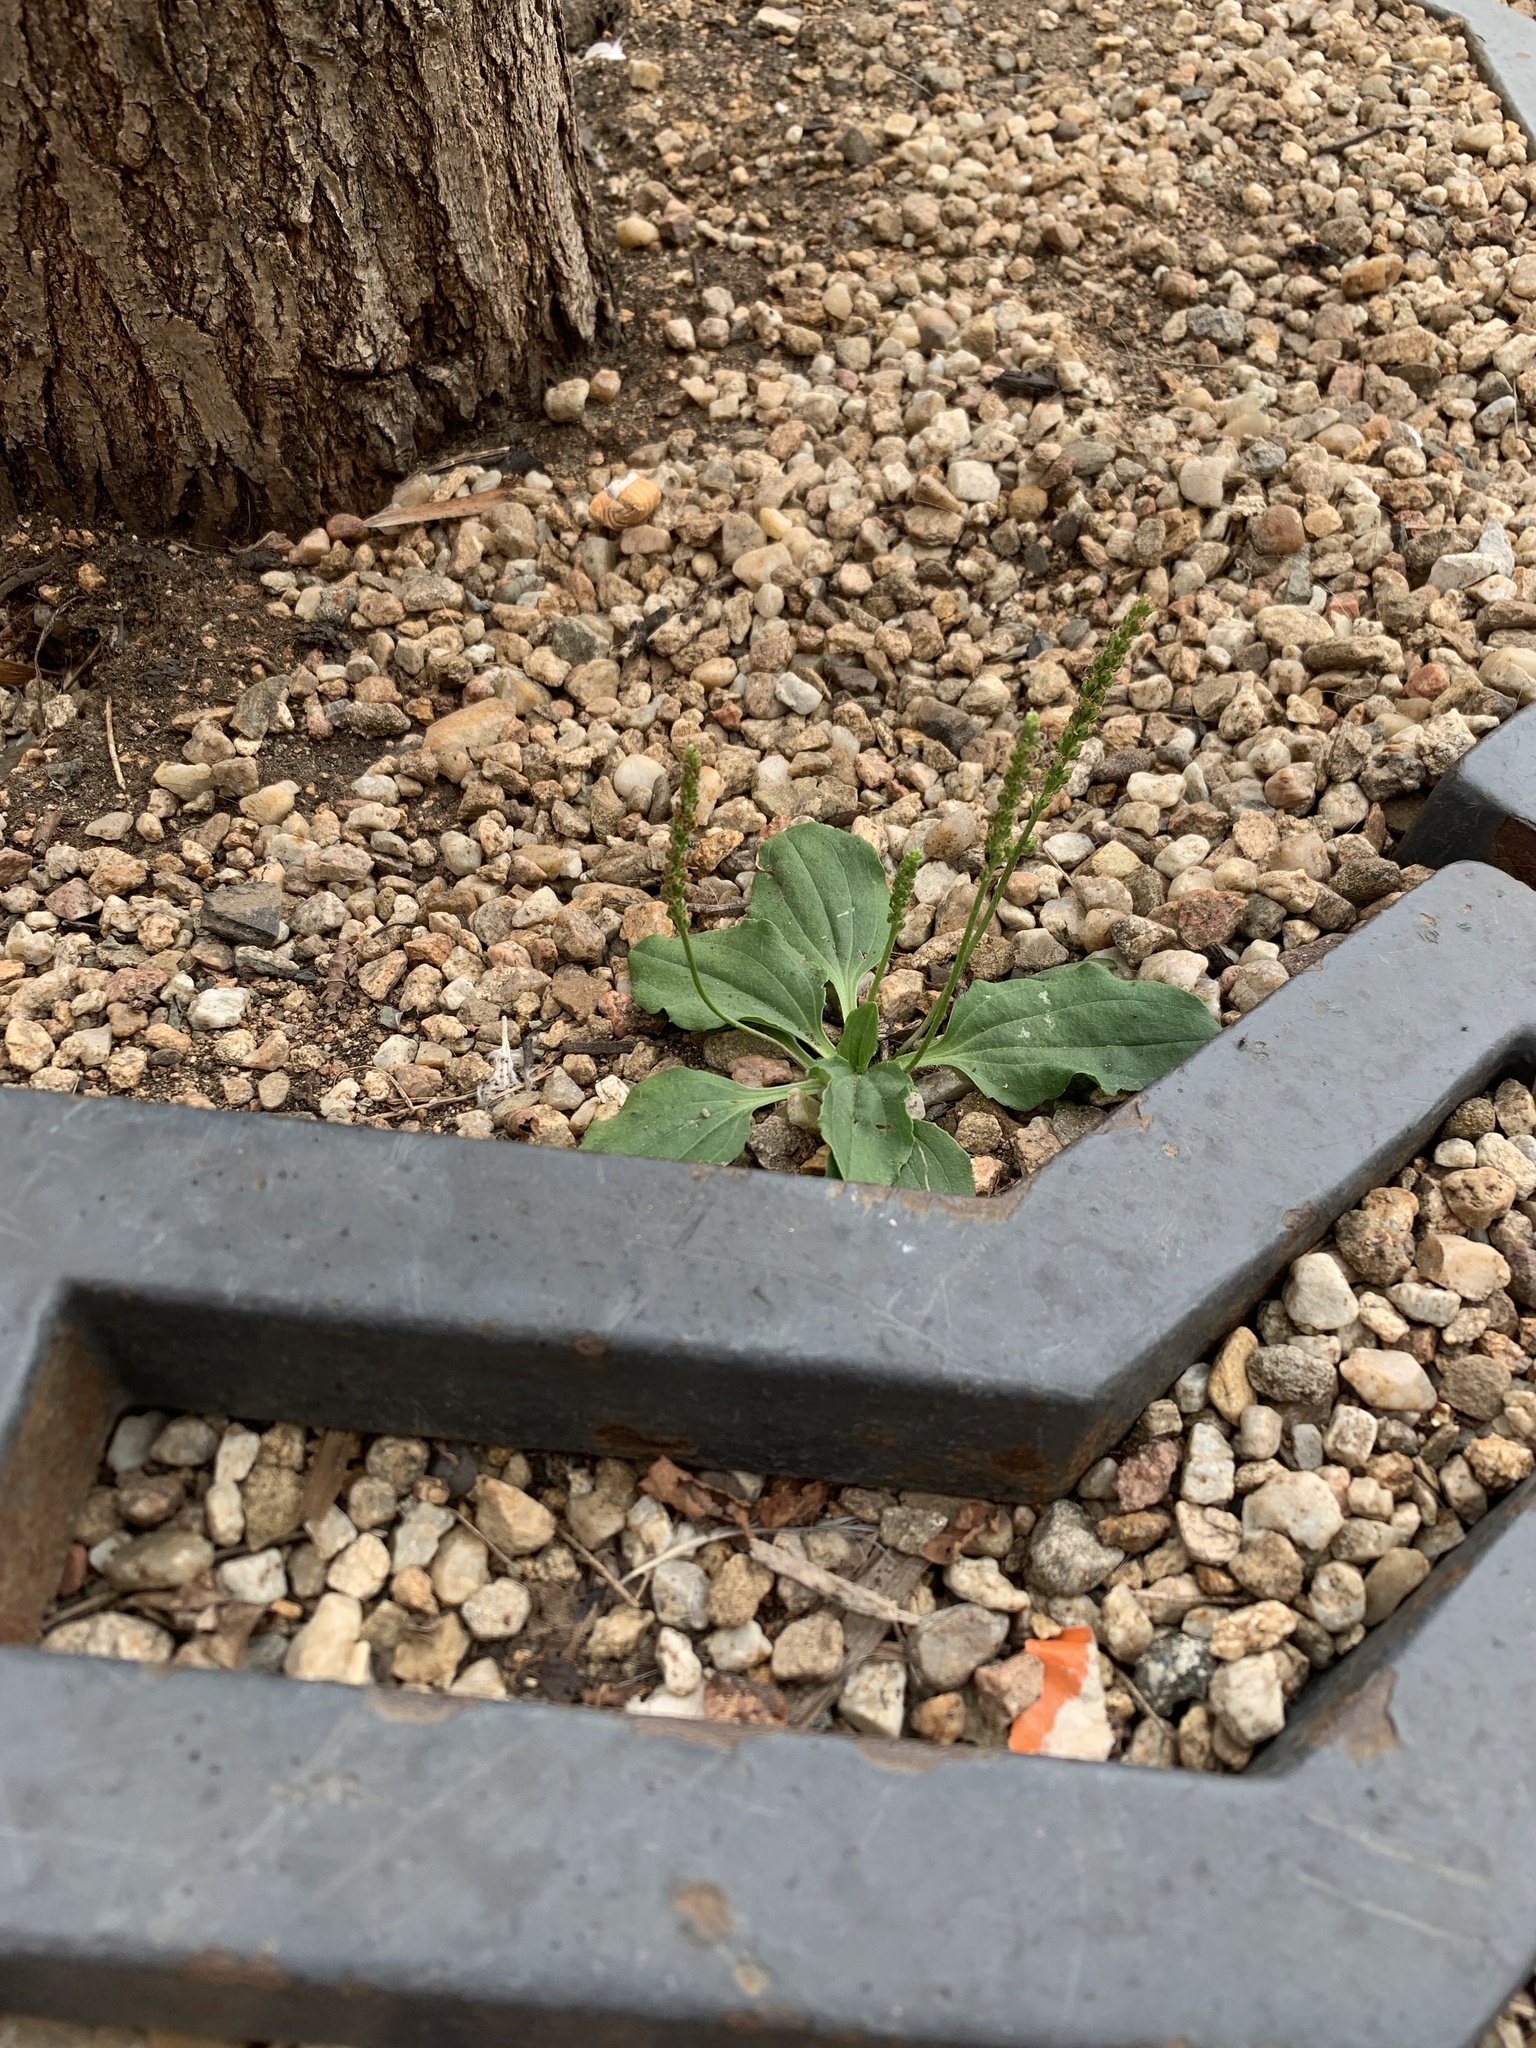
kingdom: Plantae
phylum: Tracheophyta
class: Magnoliopsida
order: Lamiales
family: Plantaginaceae
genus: Plantago
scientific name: Plantago major
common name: Common plantain
